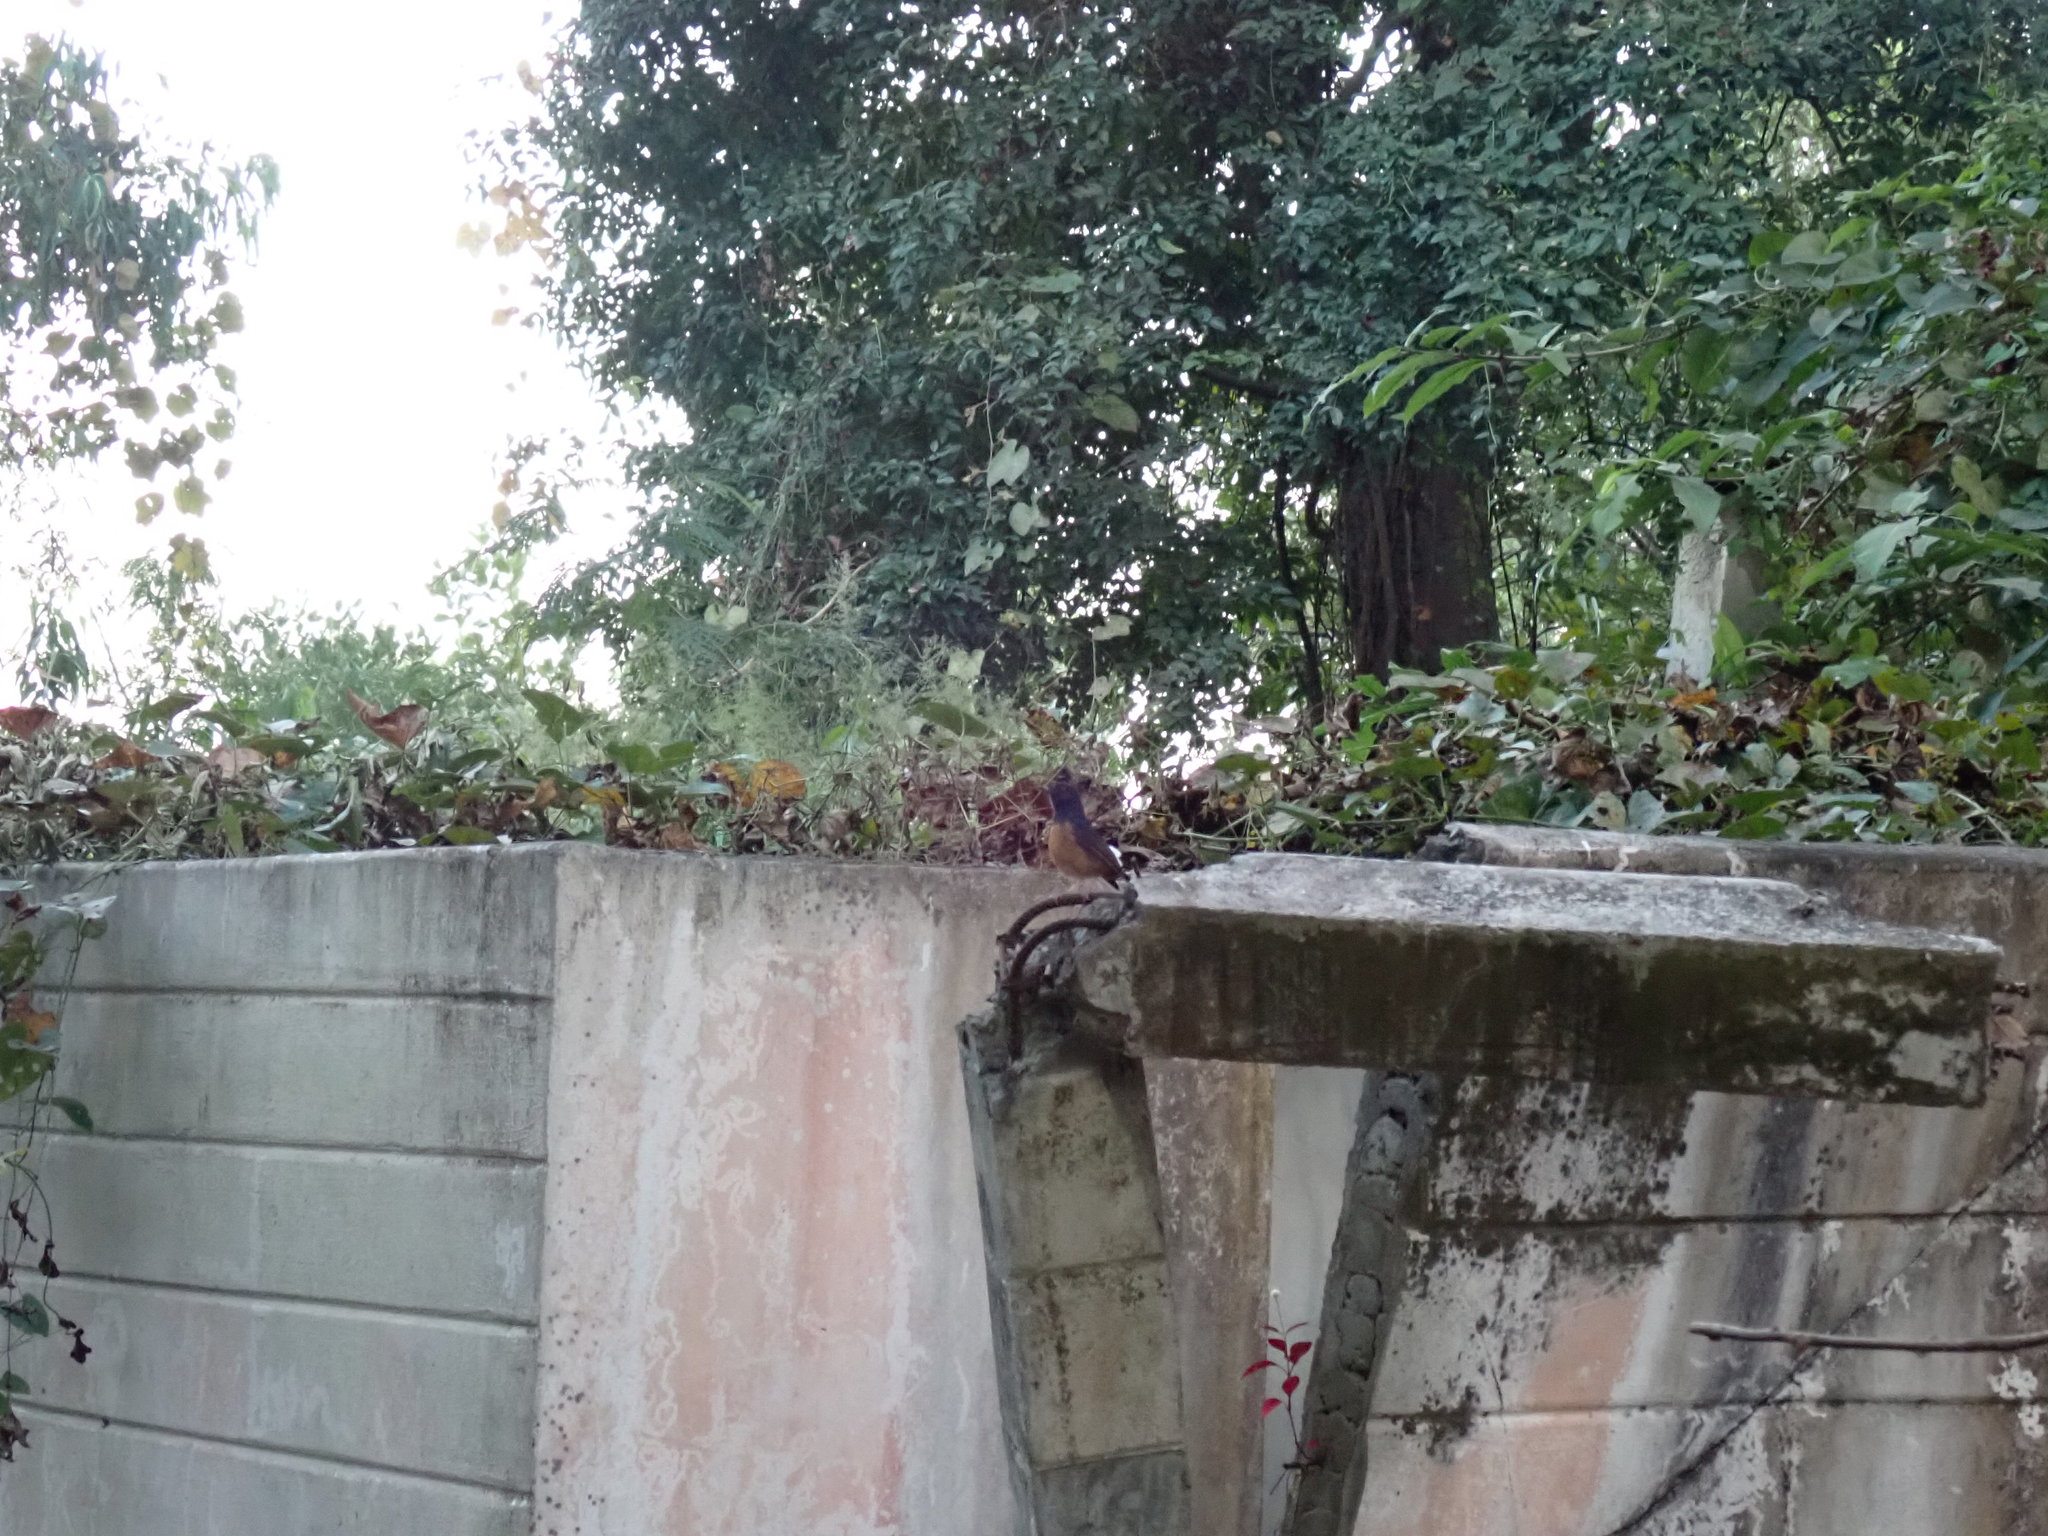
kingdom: Animalia
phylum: Chordata
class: Aves
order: Passeriformes
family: Muscicapidae
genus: Copsychus
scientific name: Copsychus malabaricus
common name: White-rumped shama
